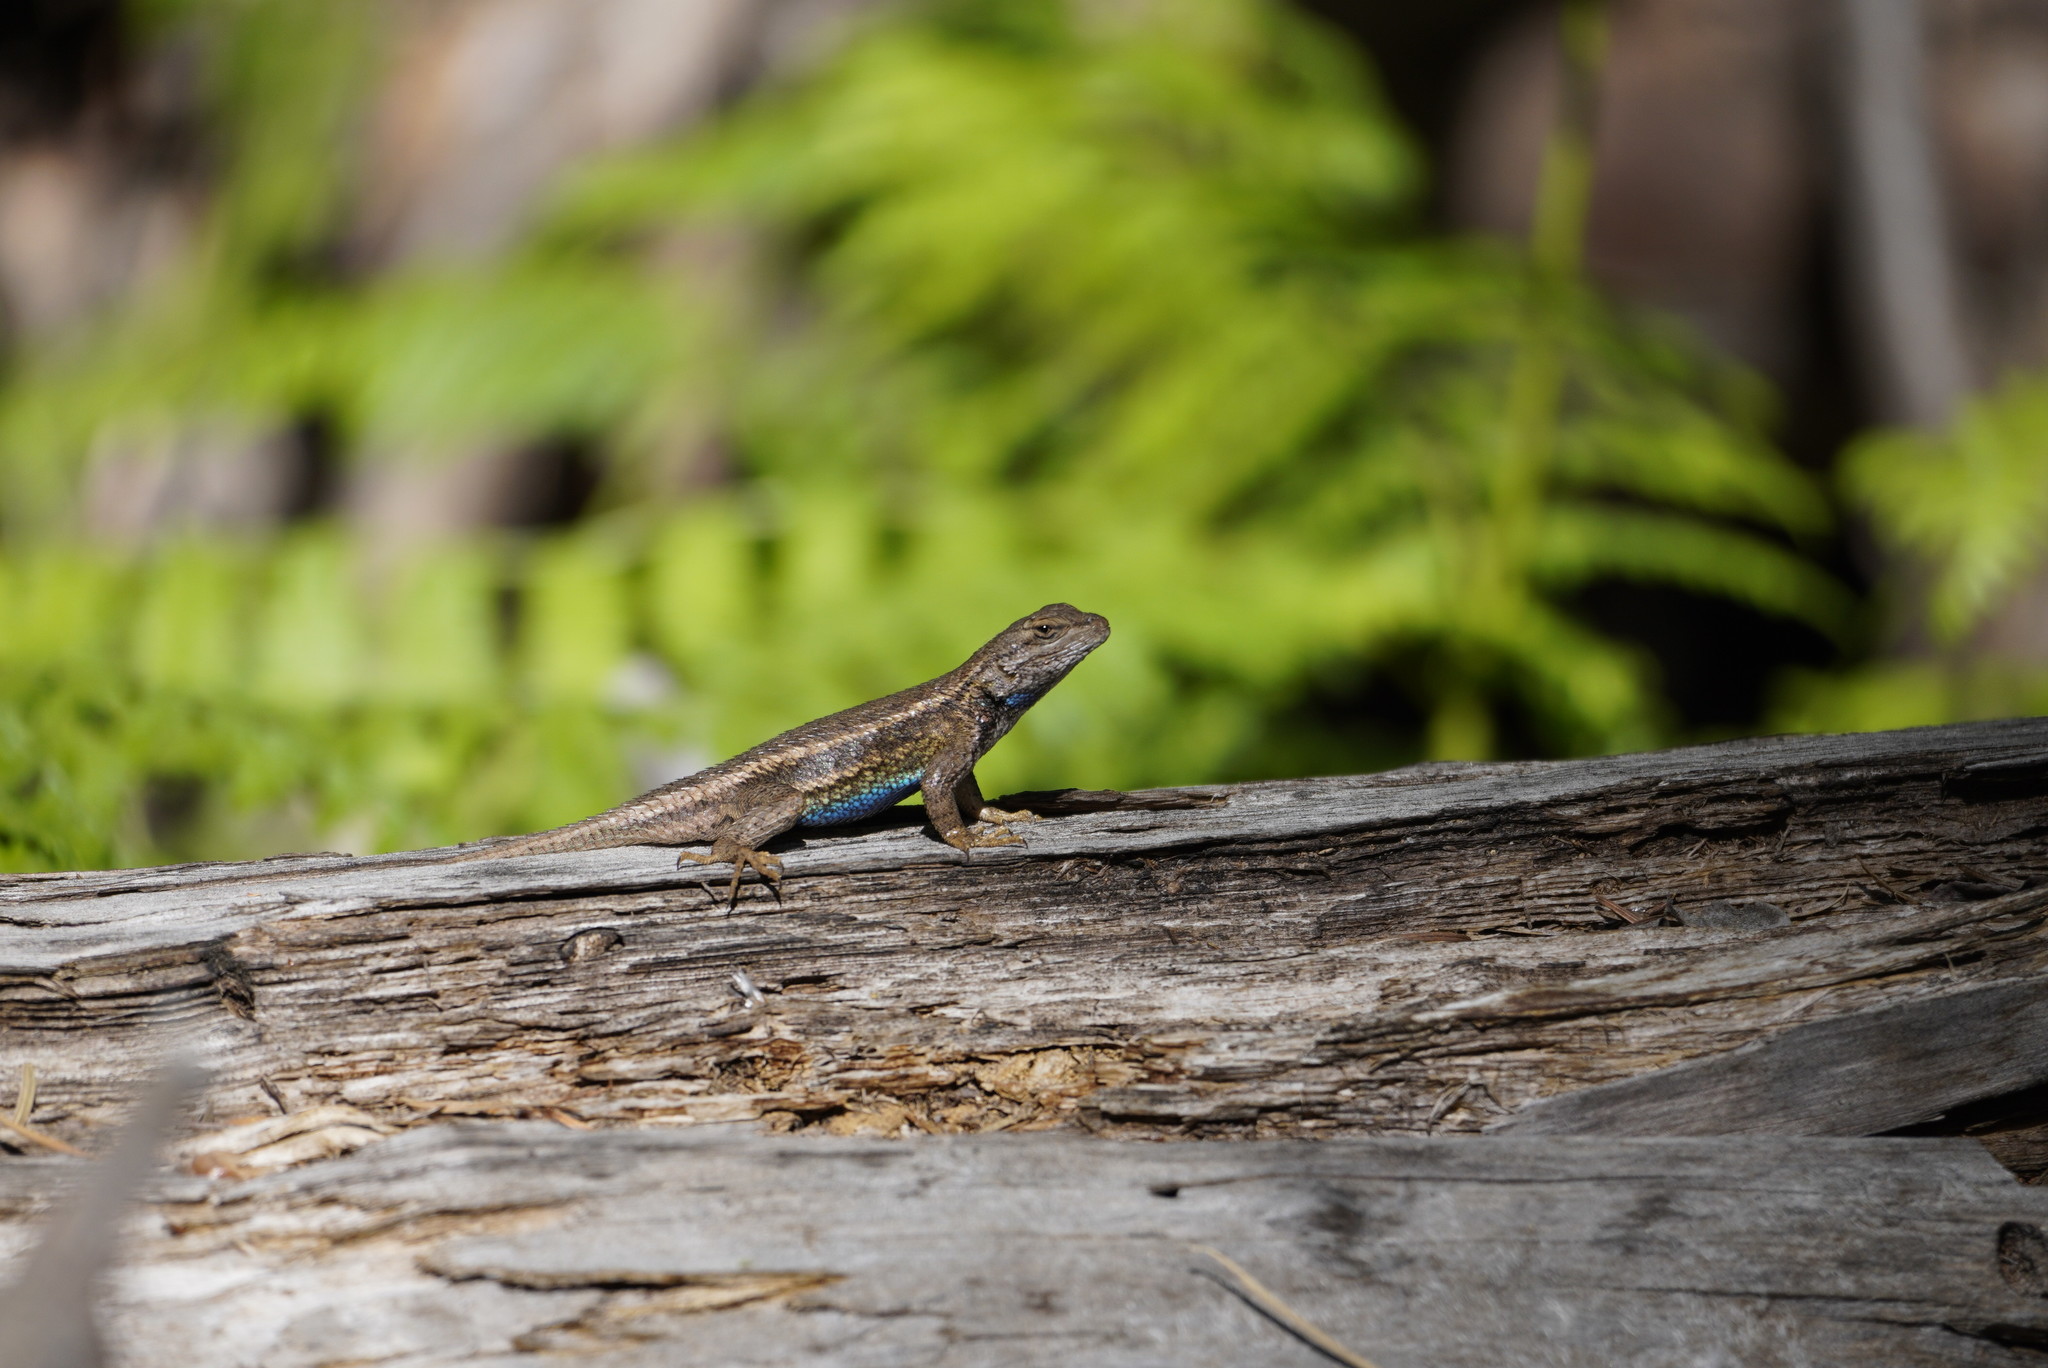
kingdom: Animalia
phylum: Chordata
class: Squamata
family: Phrynosomatidae
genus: Sceloporus
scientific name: Sceloporus tristichus
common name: Plateau fence lizard
